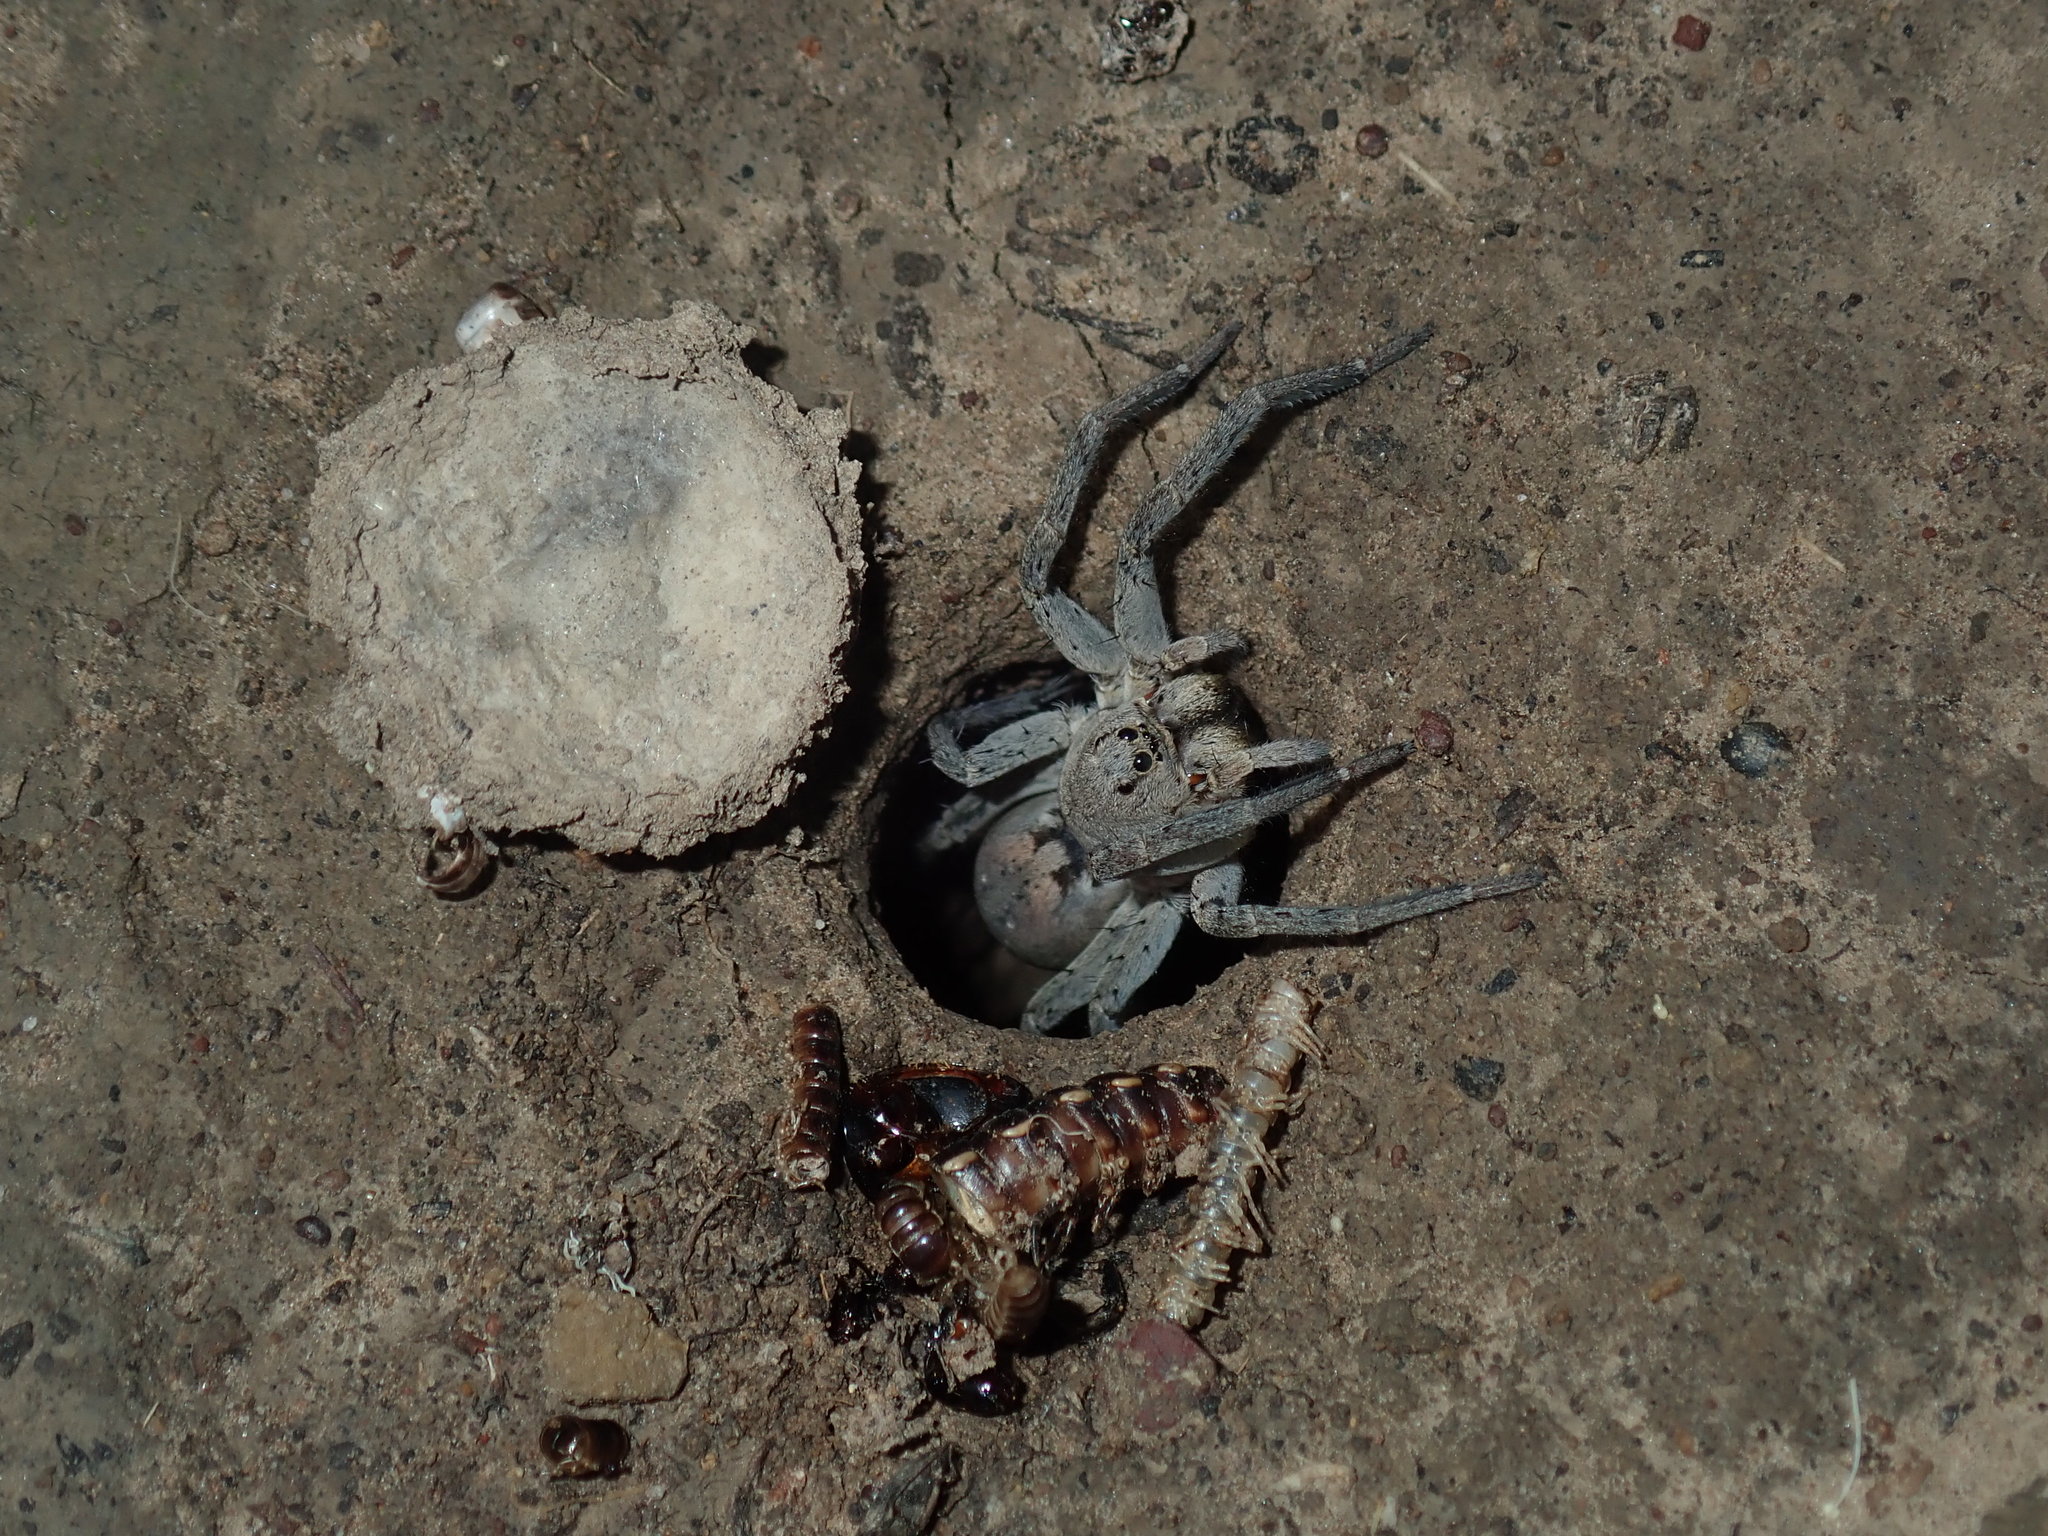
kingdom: Animalia
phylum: Arthropoda
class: Arachnida
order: Araneae
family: Lycosidae
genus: Portacosa
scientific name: Portacosa cinerea
